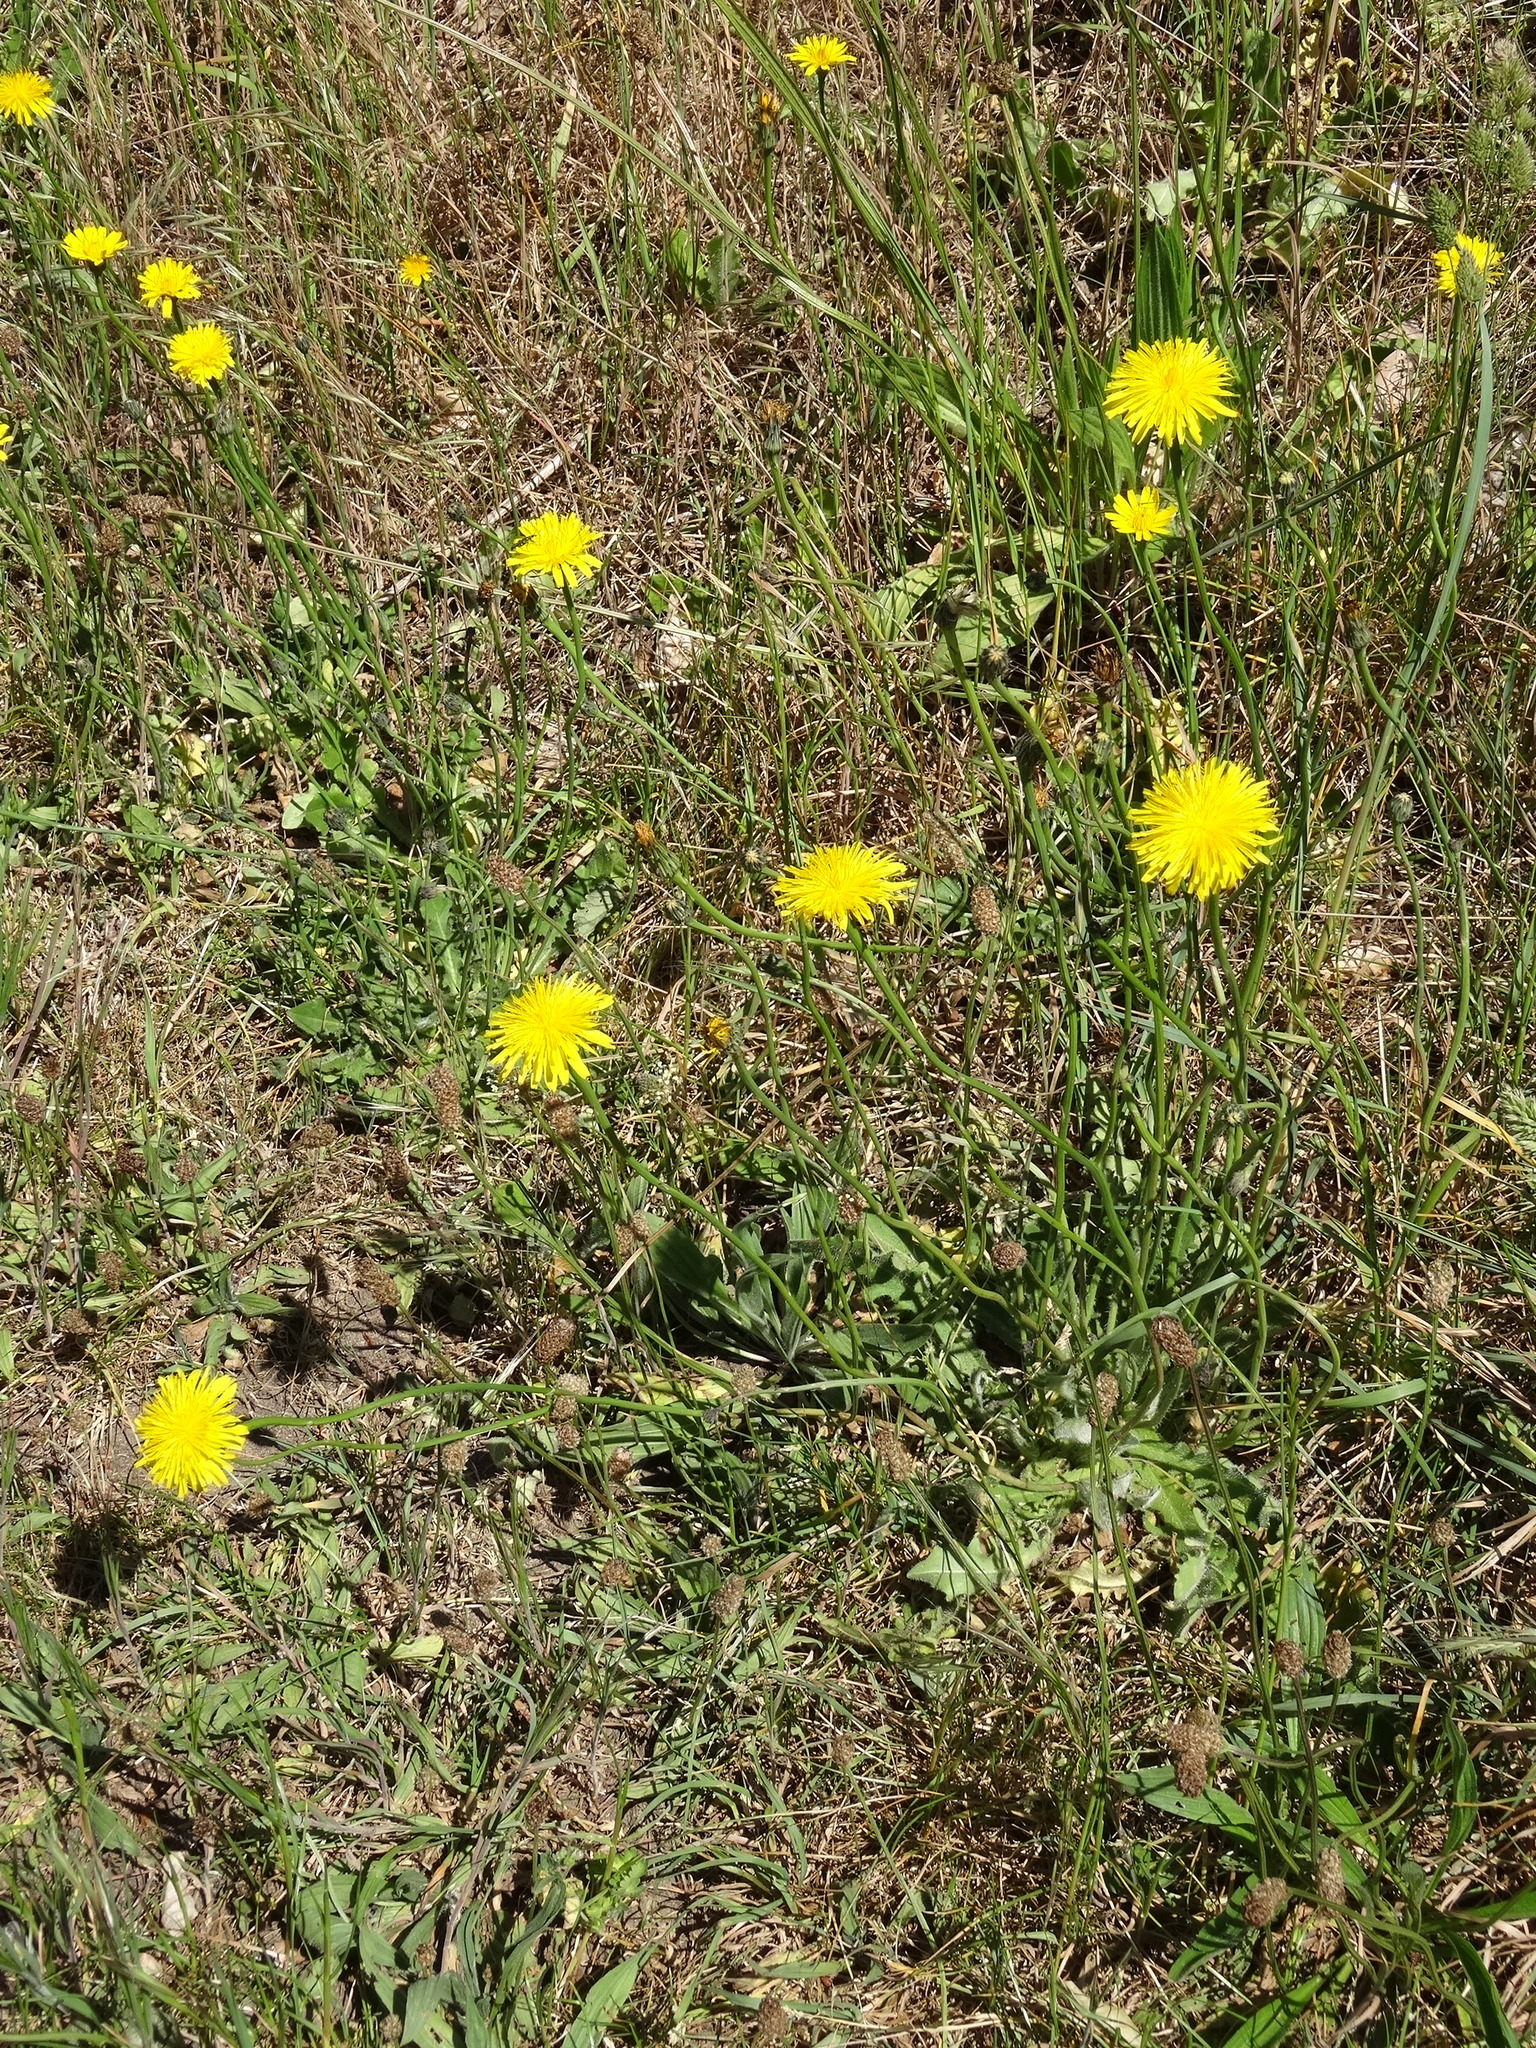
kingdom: Plantae
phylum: Tracheophyta
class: Magnoliopsida
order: Asterales
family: Asteraceae
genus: Hypochaeris
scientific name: Hypochaeris radicata
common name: Flatweed
